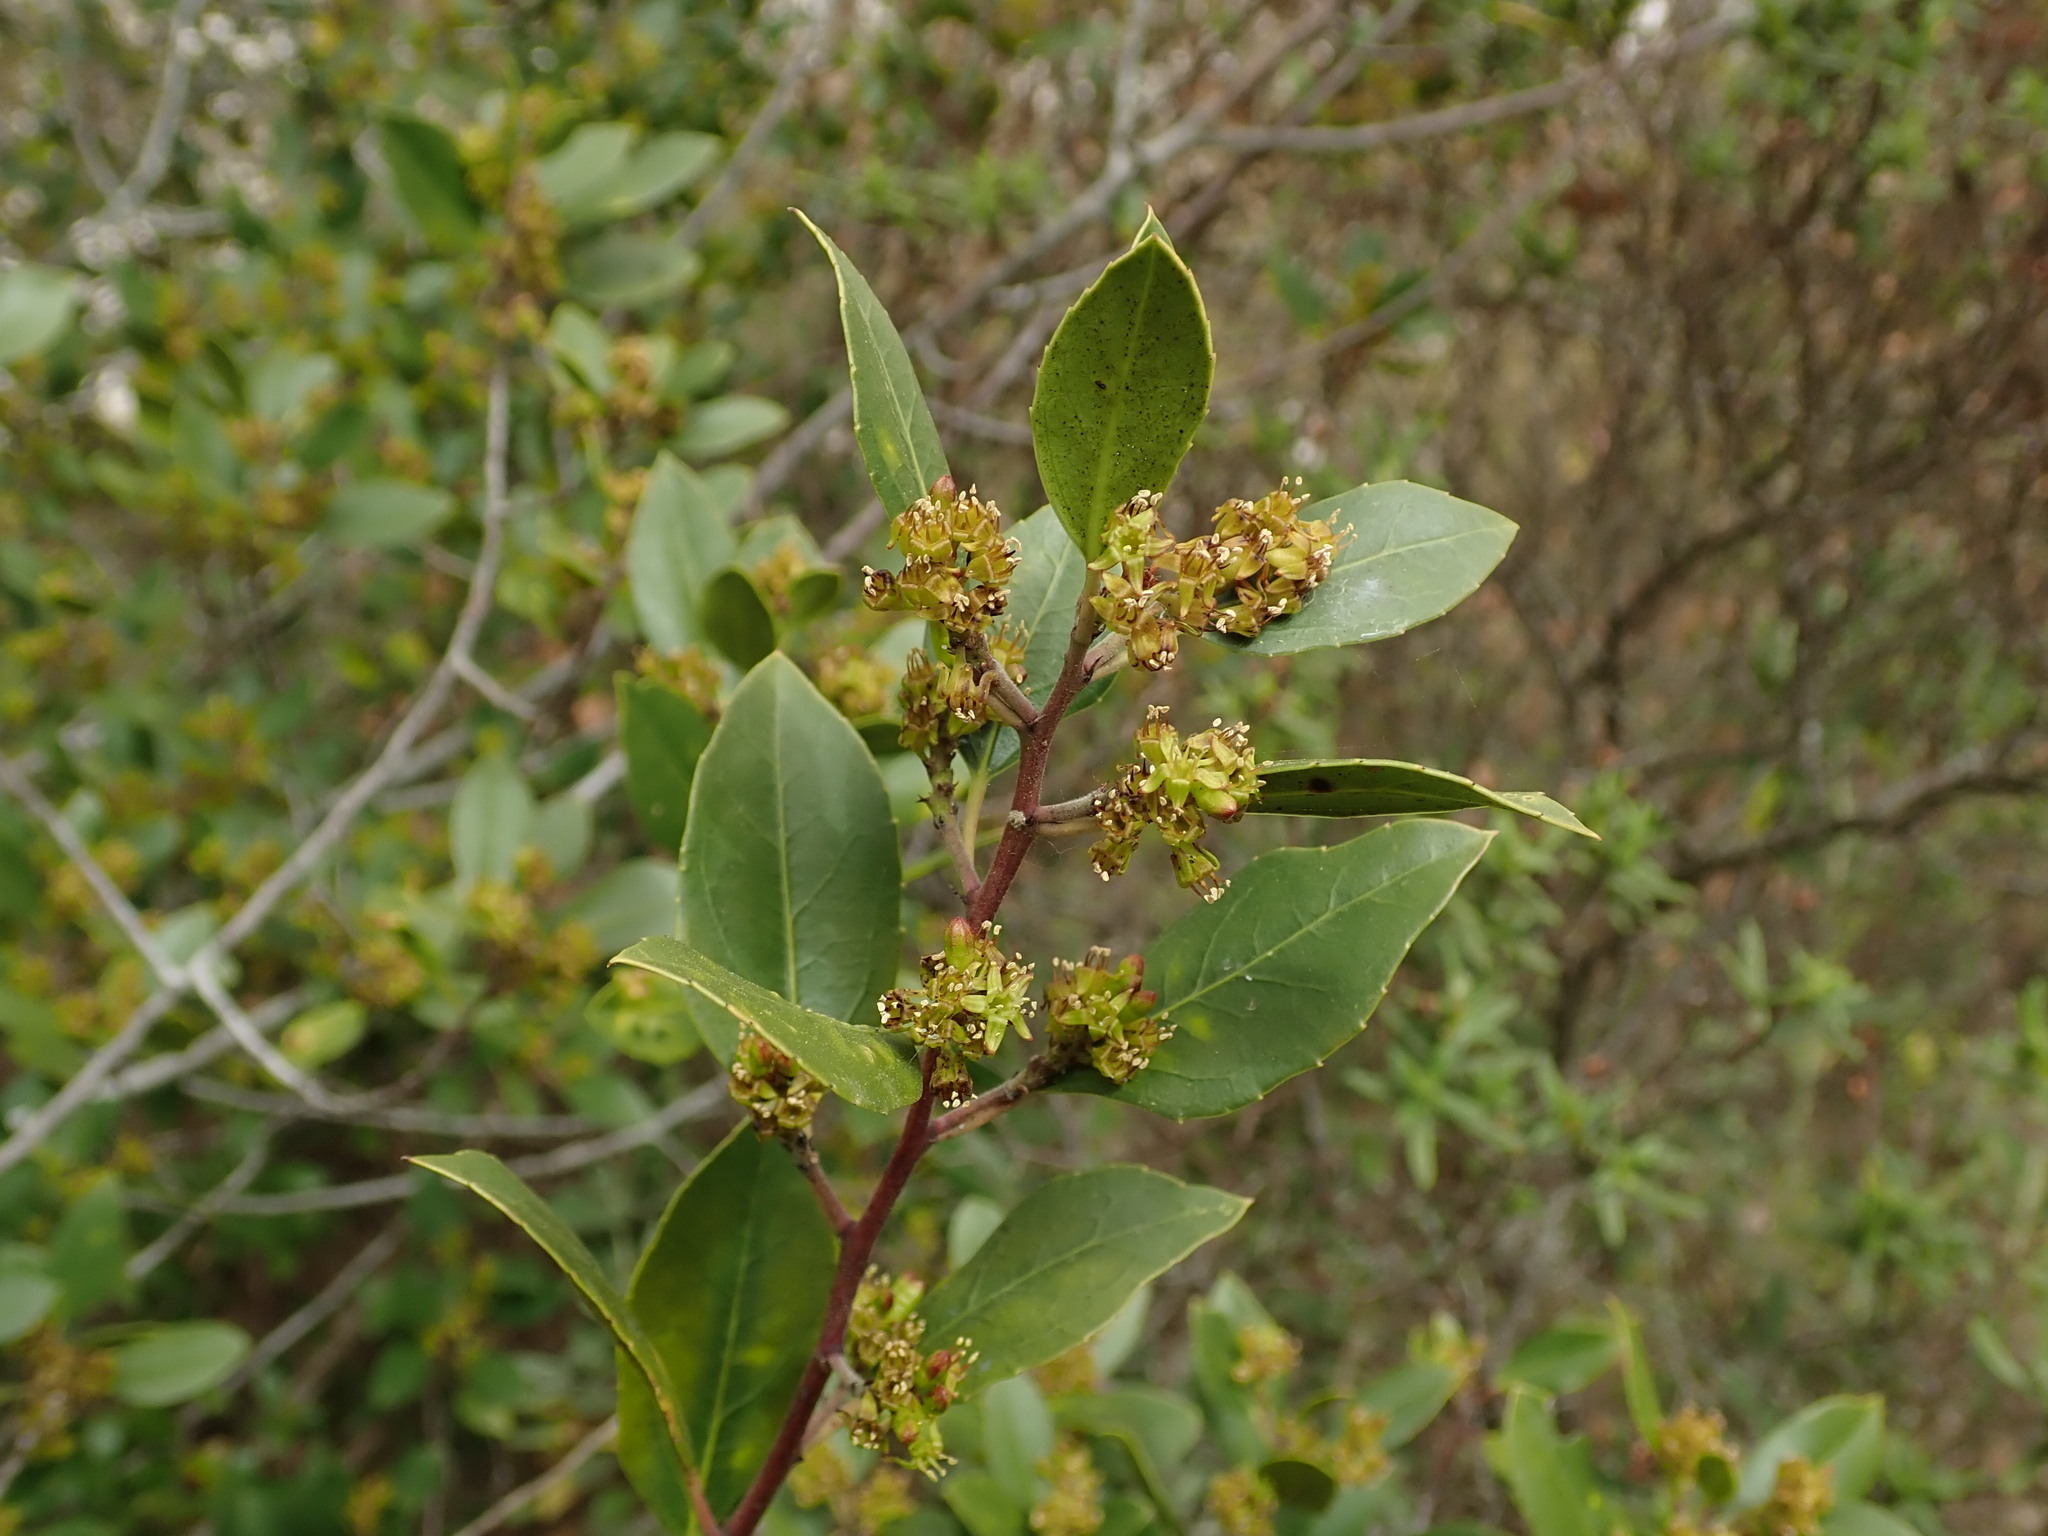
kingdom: Plantae
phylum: Tracheophyta
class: Magnoliopsida
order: Rosales
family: Rhamnaceae
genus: Rhamnus
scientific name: Rhamnus alaternus
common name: Mediterranean buckthorn
